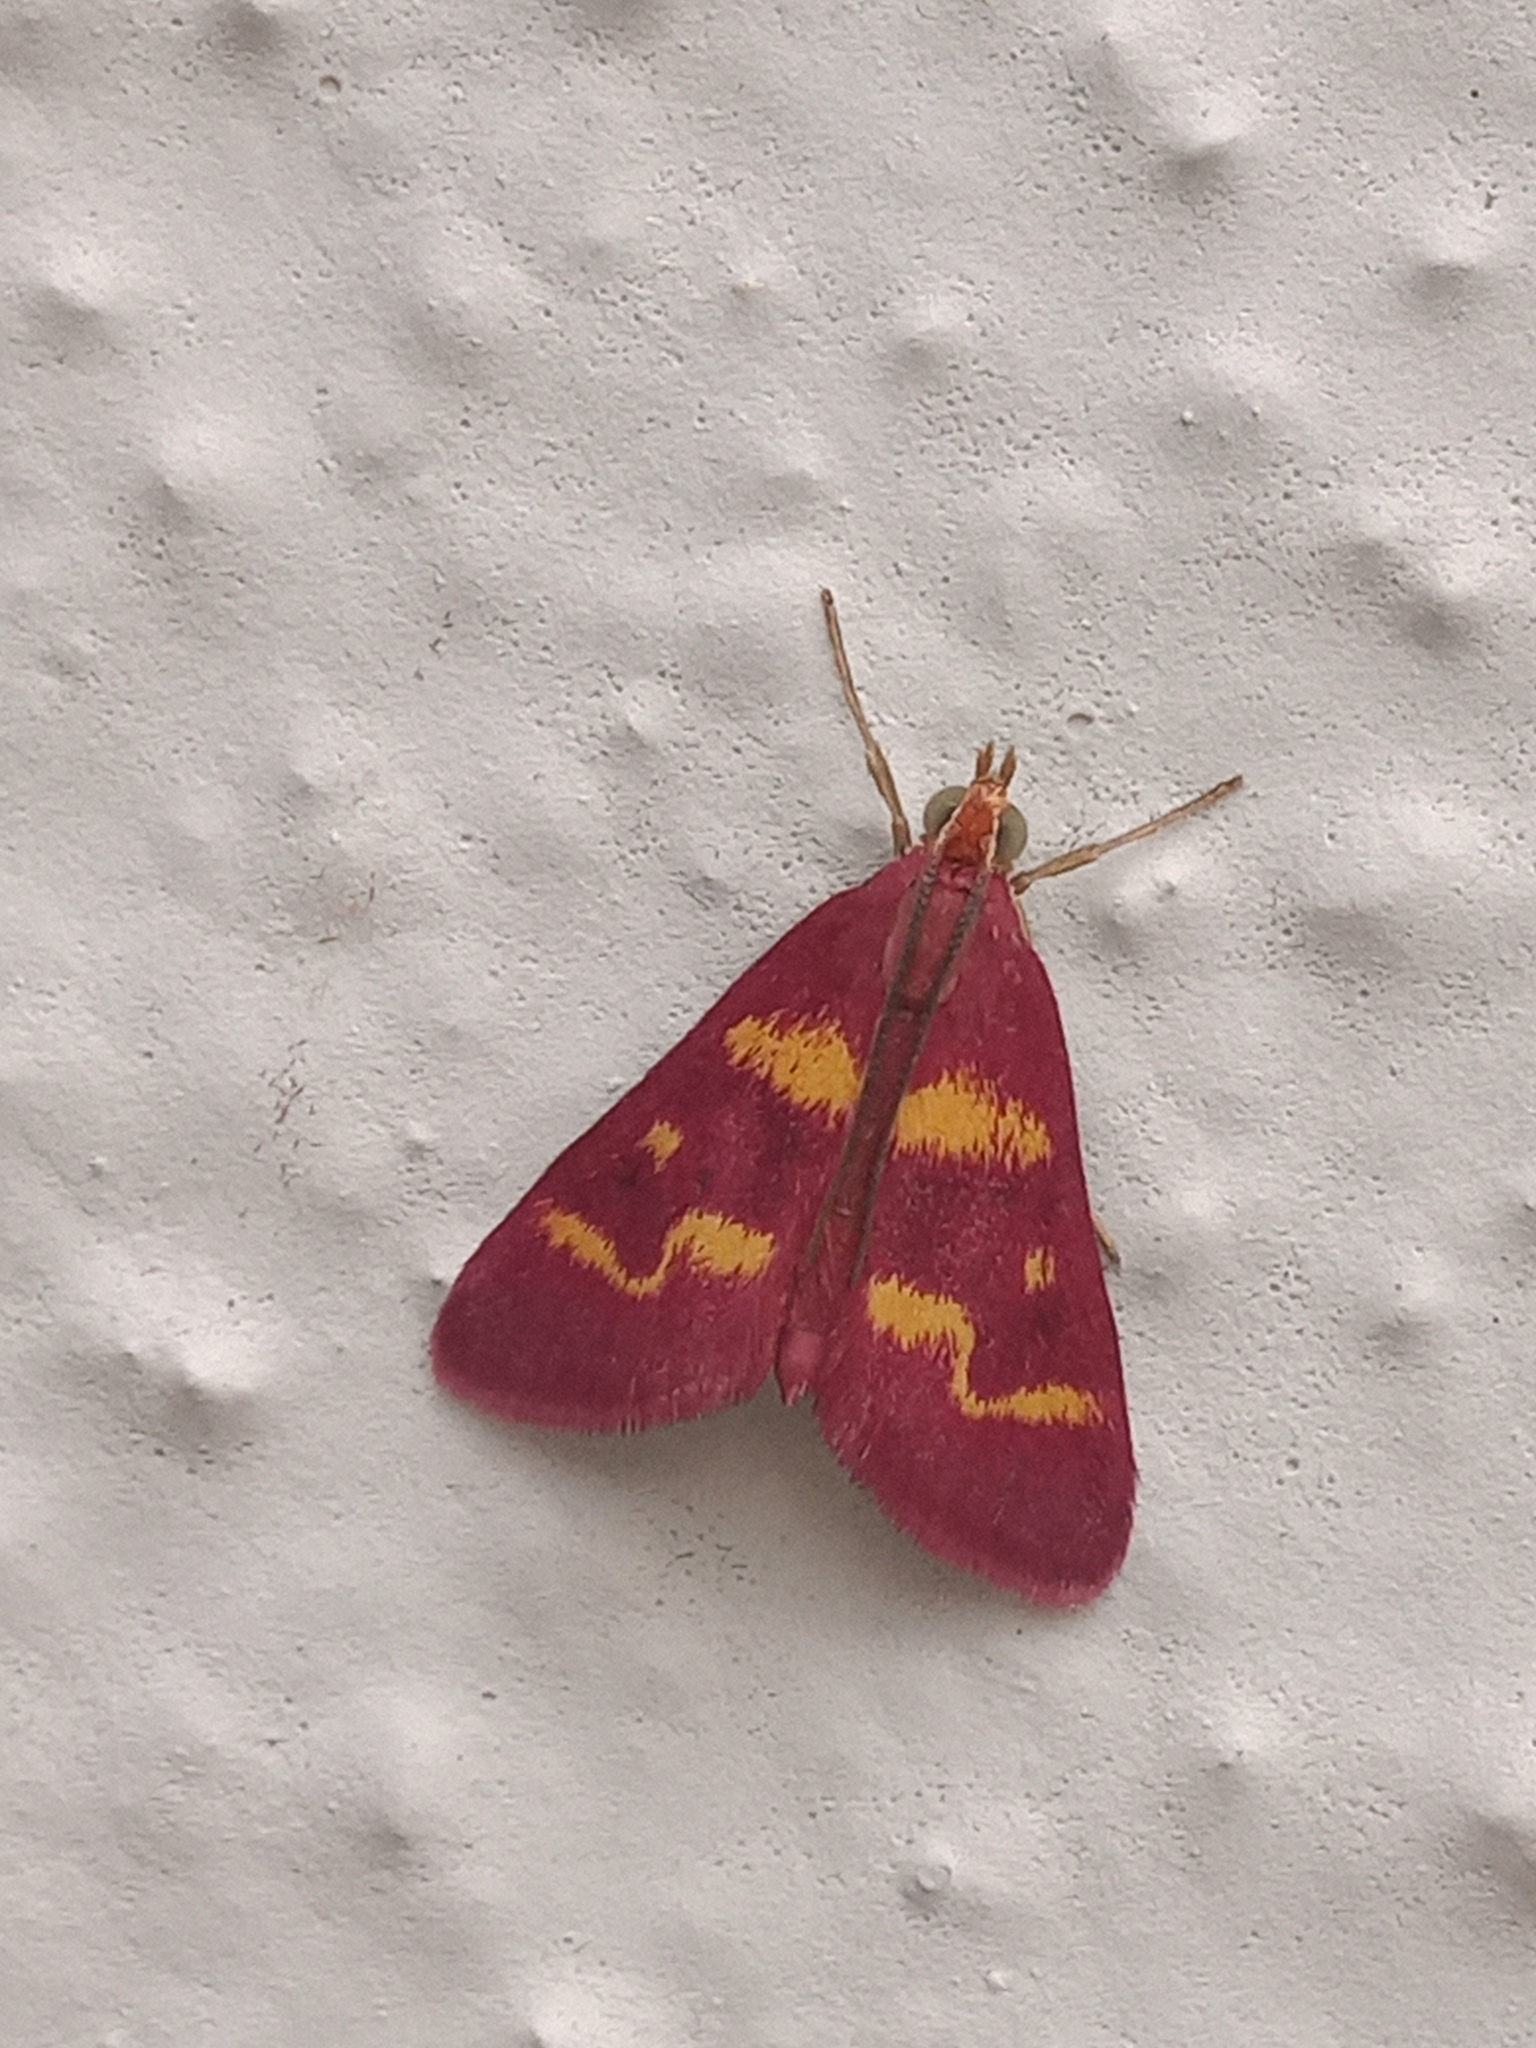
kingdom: Animalia
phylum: Arthropoda
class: Insecta
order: Lepidoptera
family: Crambidae
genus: Pyrausta
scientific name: Pyrausta tyralis
